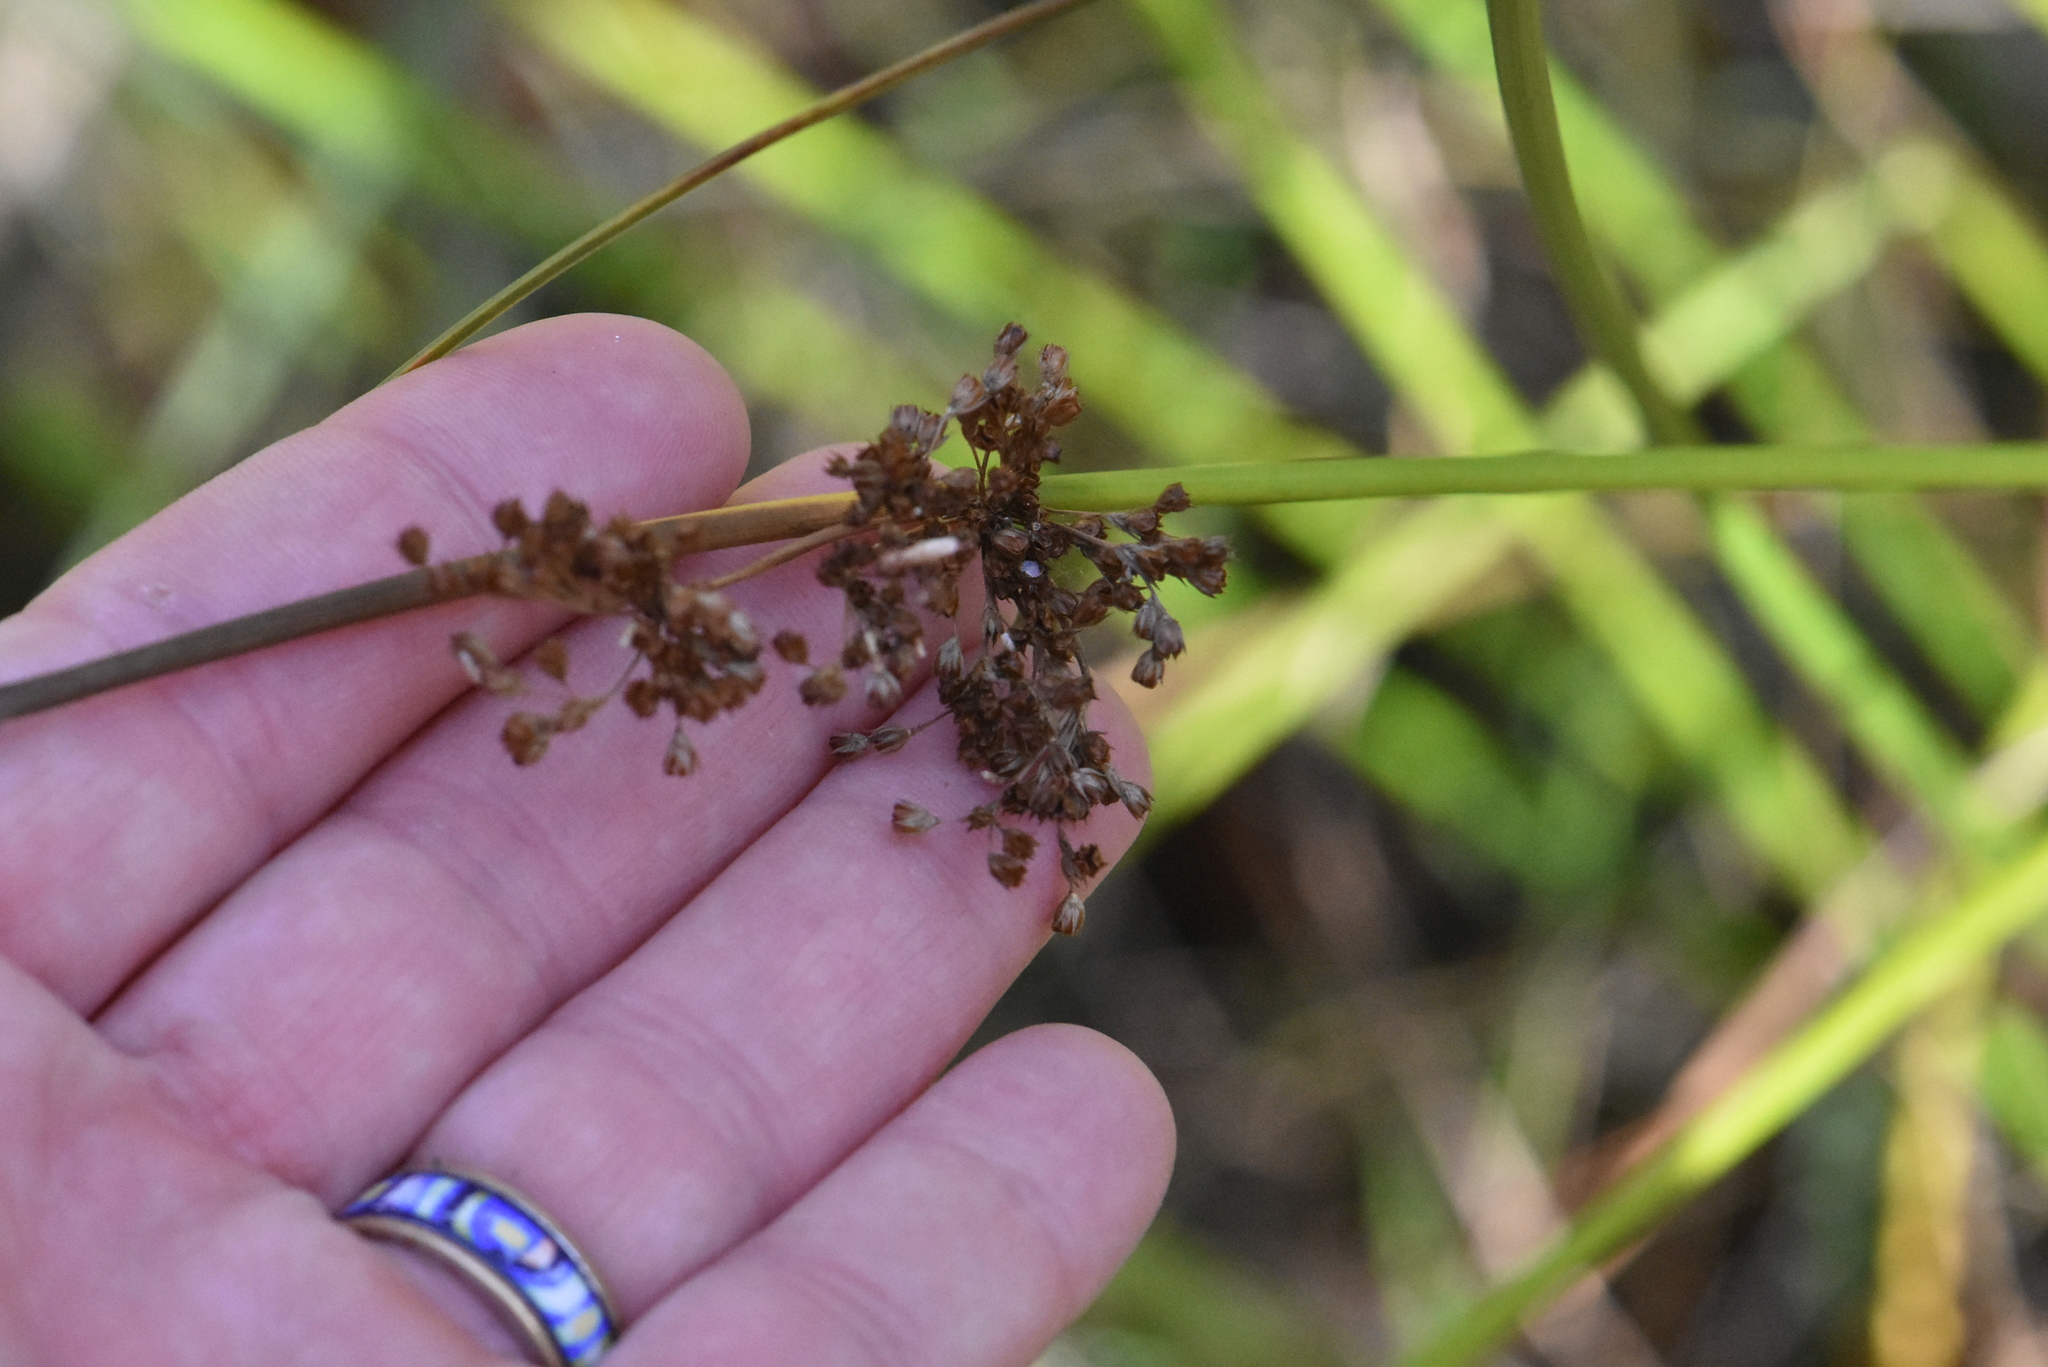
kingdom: Plantae
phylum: Tracheophyta
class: Liliopsida
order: Poales
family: Juncaceae
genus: Juncus
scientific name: Juncus effusus
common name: Soft rush
